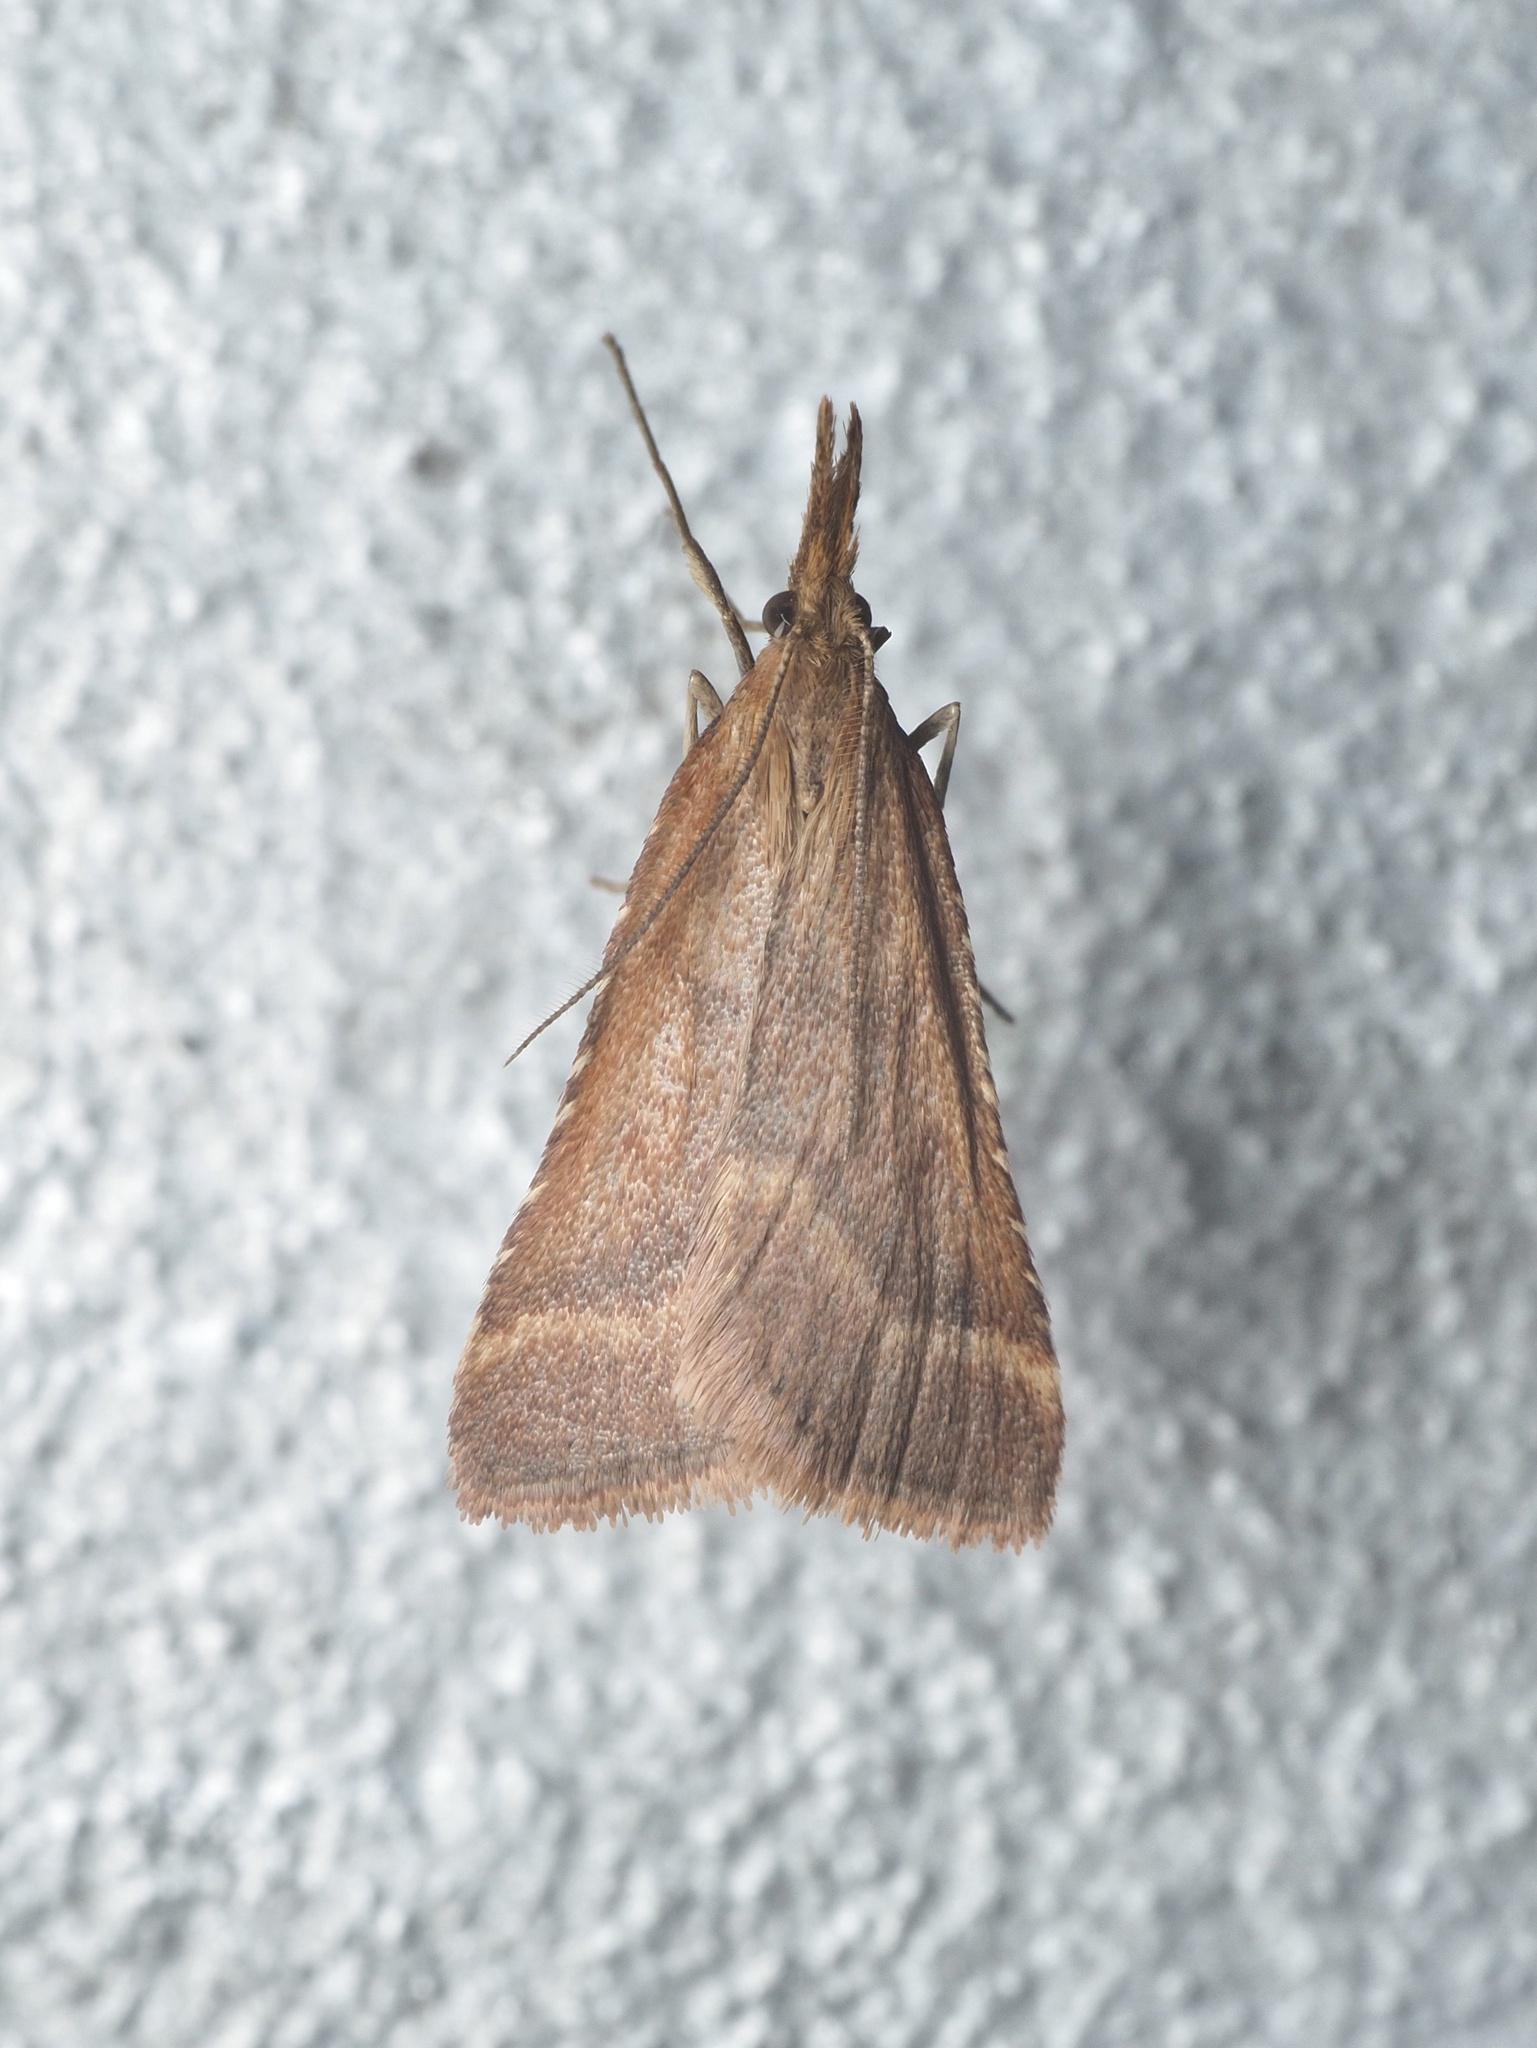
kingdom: Animalia
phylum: Arthropoda
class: Insecta
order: Lepidoptera
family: Pyralidae
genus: Synaphe
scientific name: Synaphe punctalis
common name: Long-legged tabby
